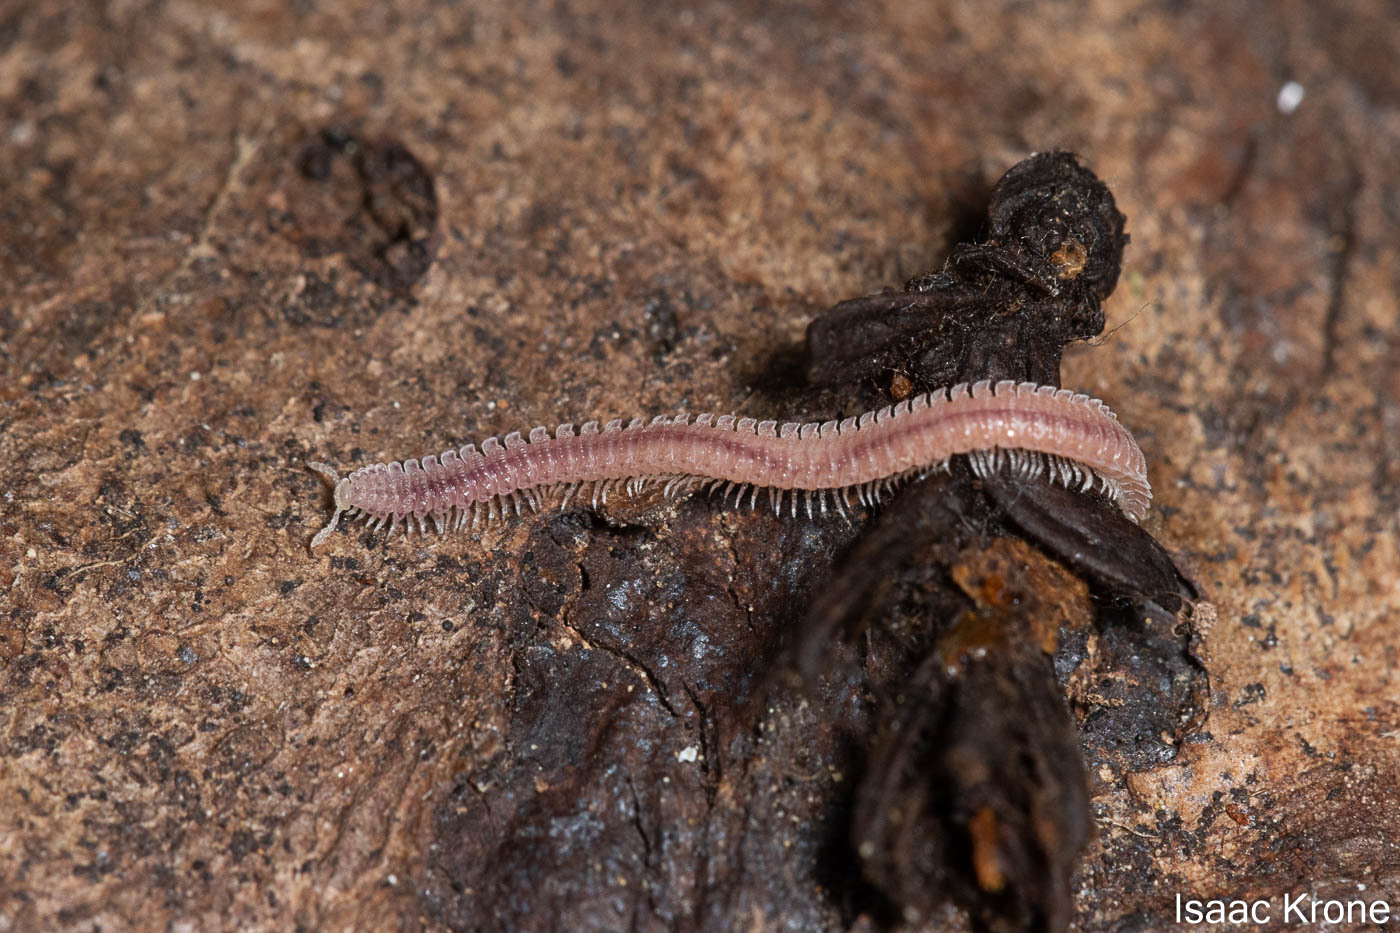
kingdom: Animalia
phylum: Arthropoda
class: Diplopoda
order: Platydesmida
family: Andrognathidae
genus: Gosodesmus
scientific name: Gosodesmus claremontus
